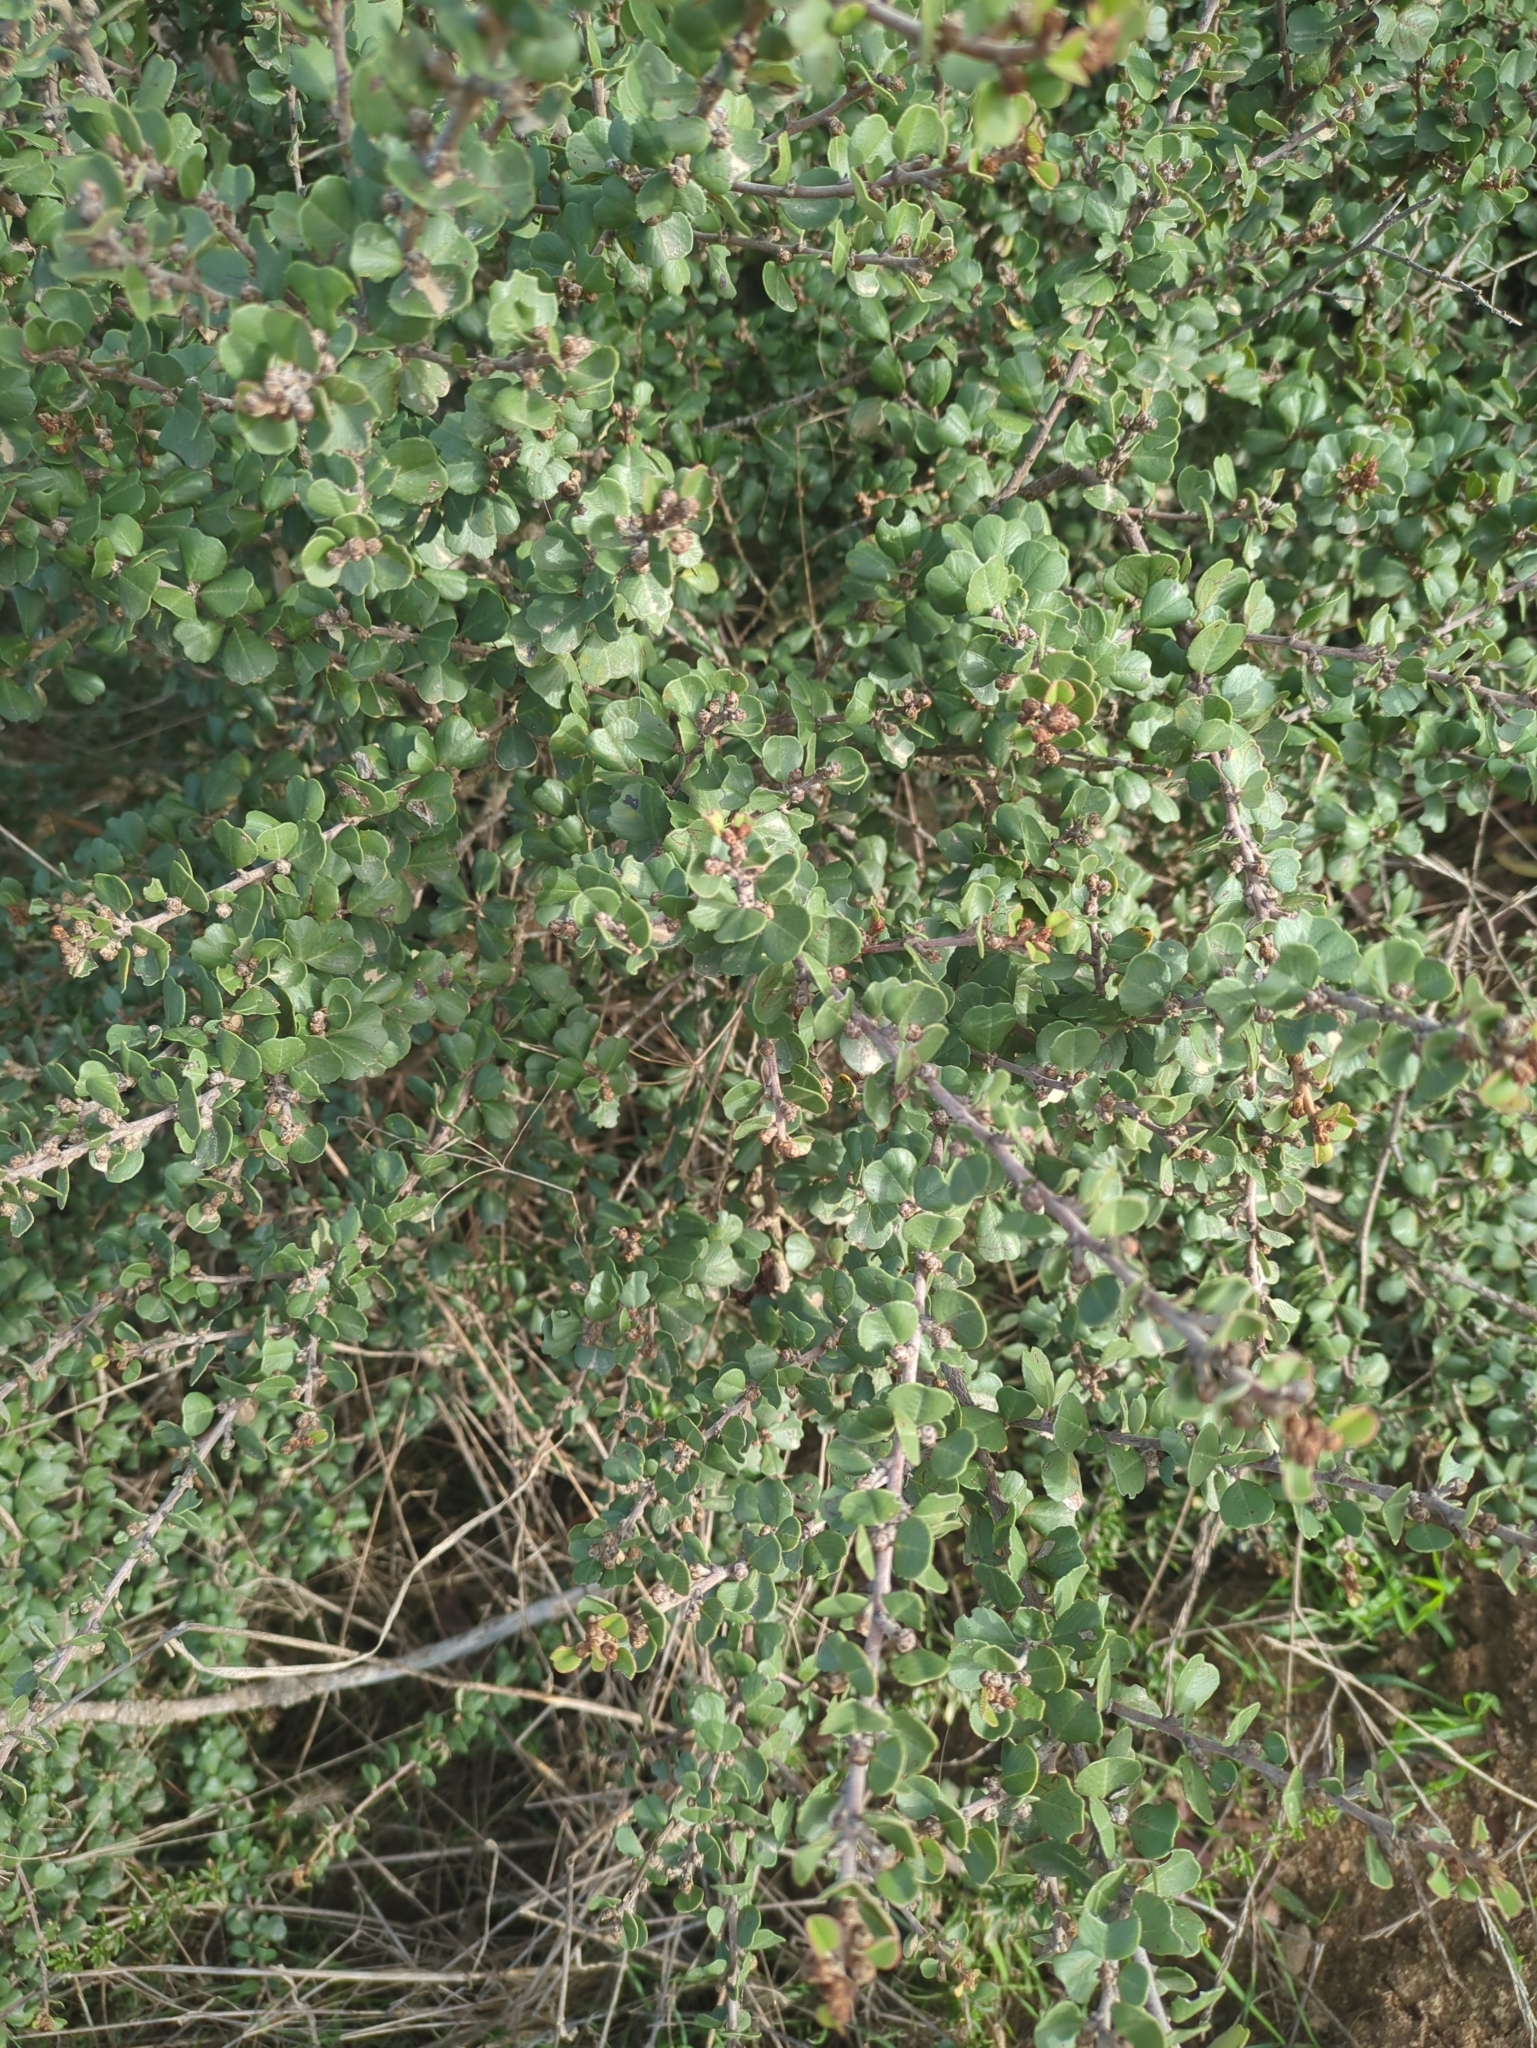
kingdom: Plantae
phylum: Tracheophyta
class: Magnoliopsida
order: Rosales
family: Rhamnaceae
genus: Ceanothus
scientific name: Ceanothus verrucosus
